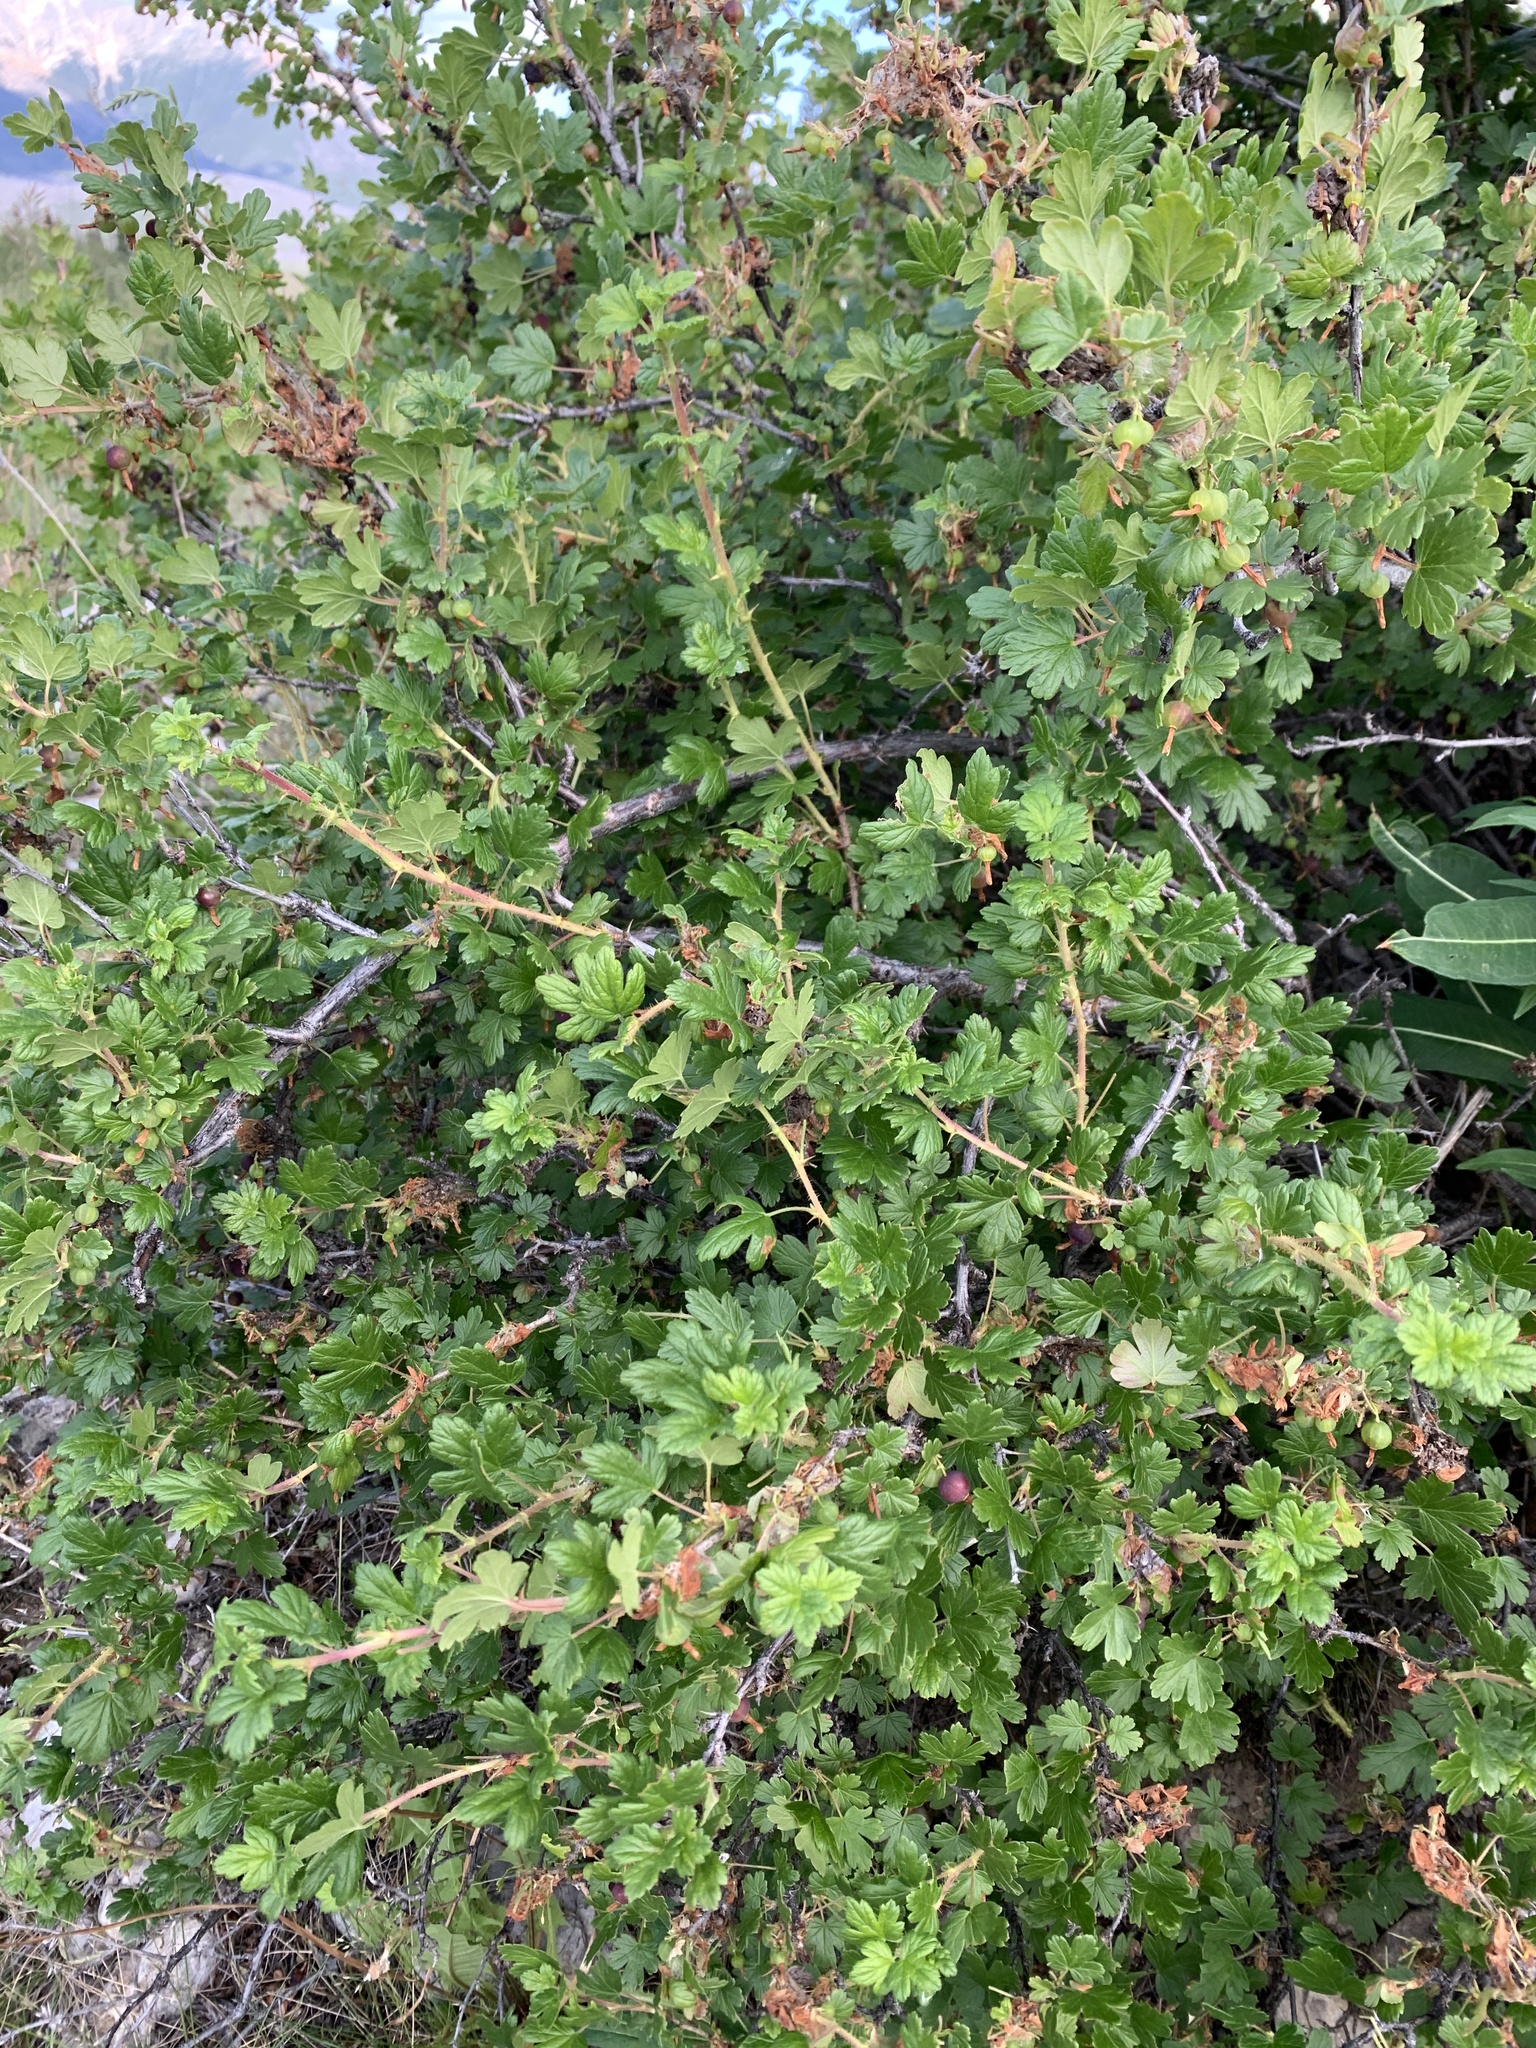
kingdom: Plantae
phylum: Tracheophyta
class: Magnoliopsida
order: Saxifragales
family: Grossulariaceae
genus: Ribes
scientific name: Ribes oxyacanthoides
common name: Northern gooseberry
